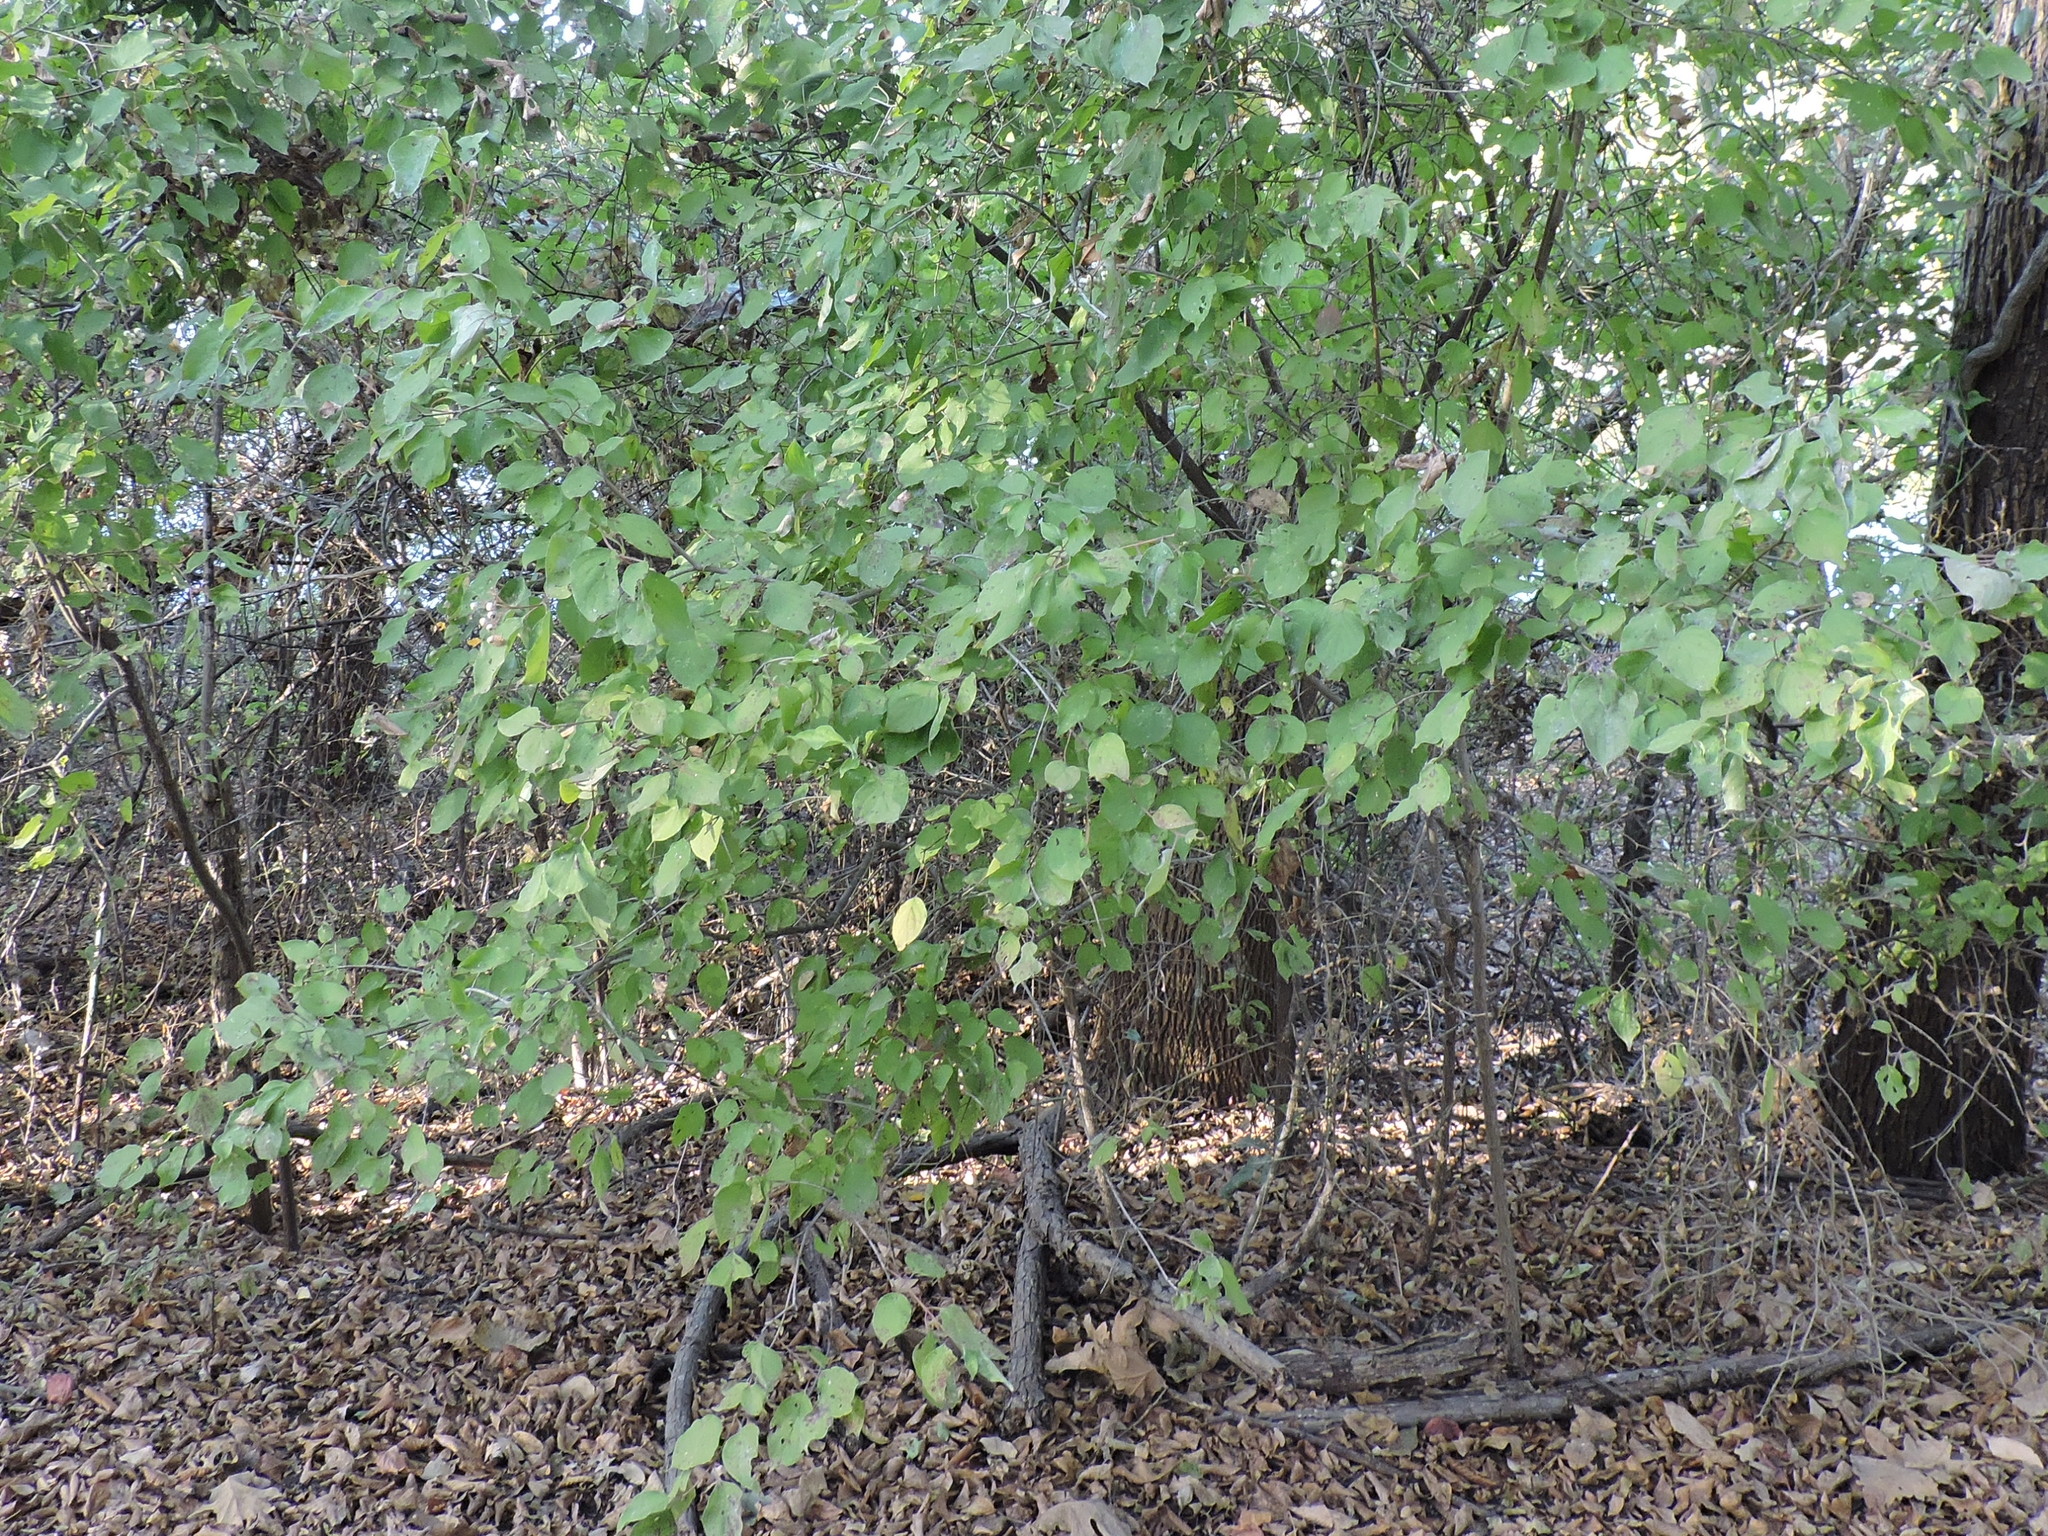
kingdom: Plantae
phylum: Tracheophyta
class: Magnoliopsida
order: Cornales
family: Cornaceae
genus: Cornus
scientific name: Cornus drummondii
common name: Rough-leaf dogwood
